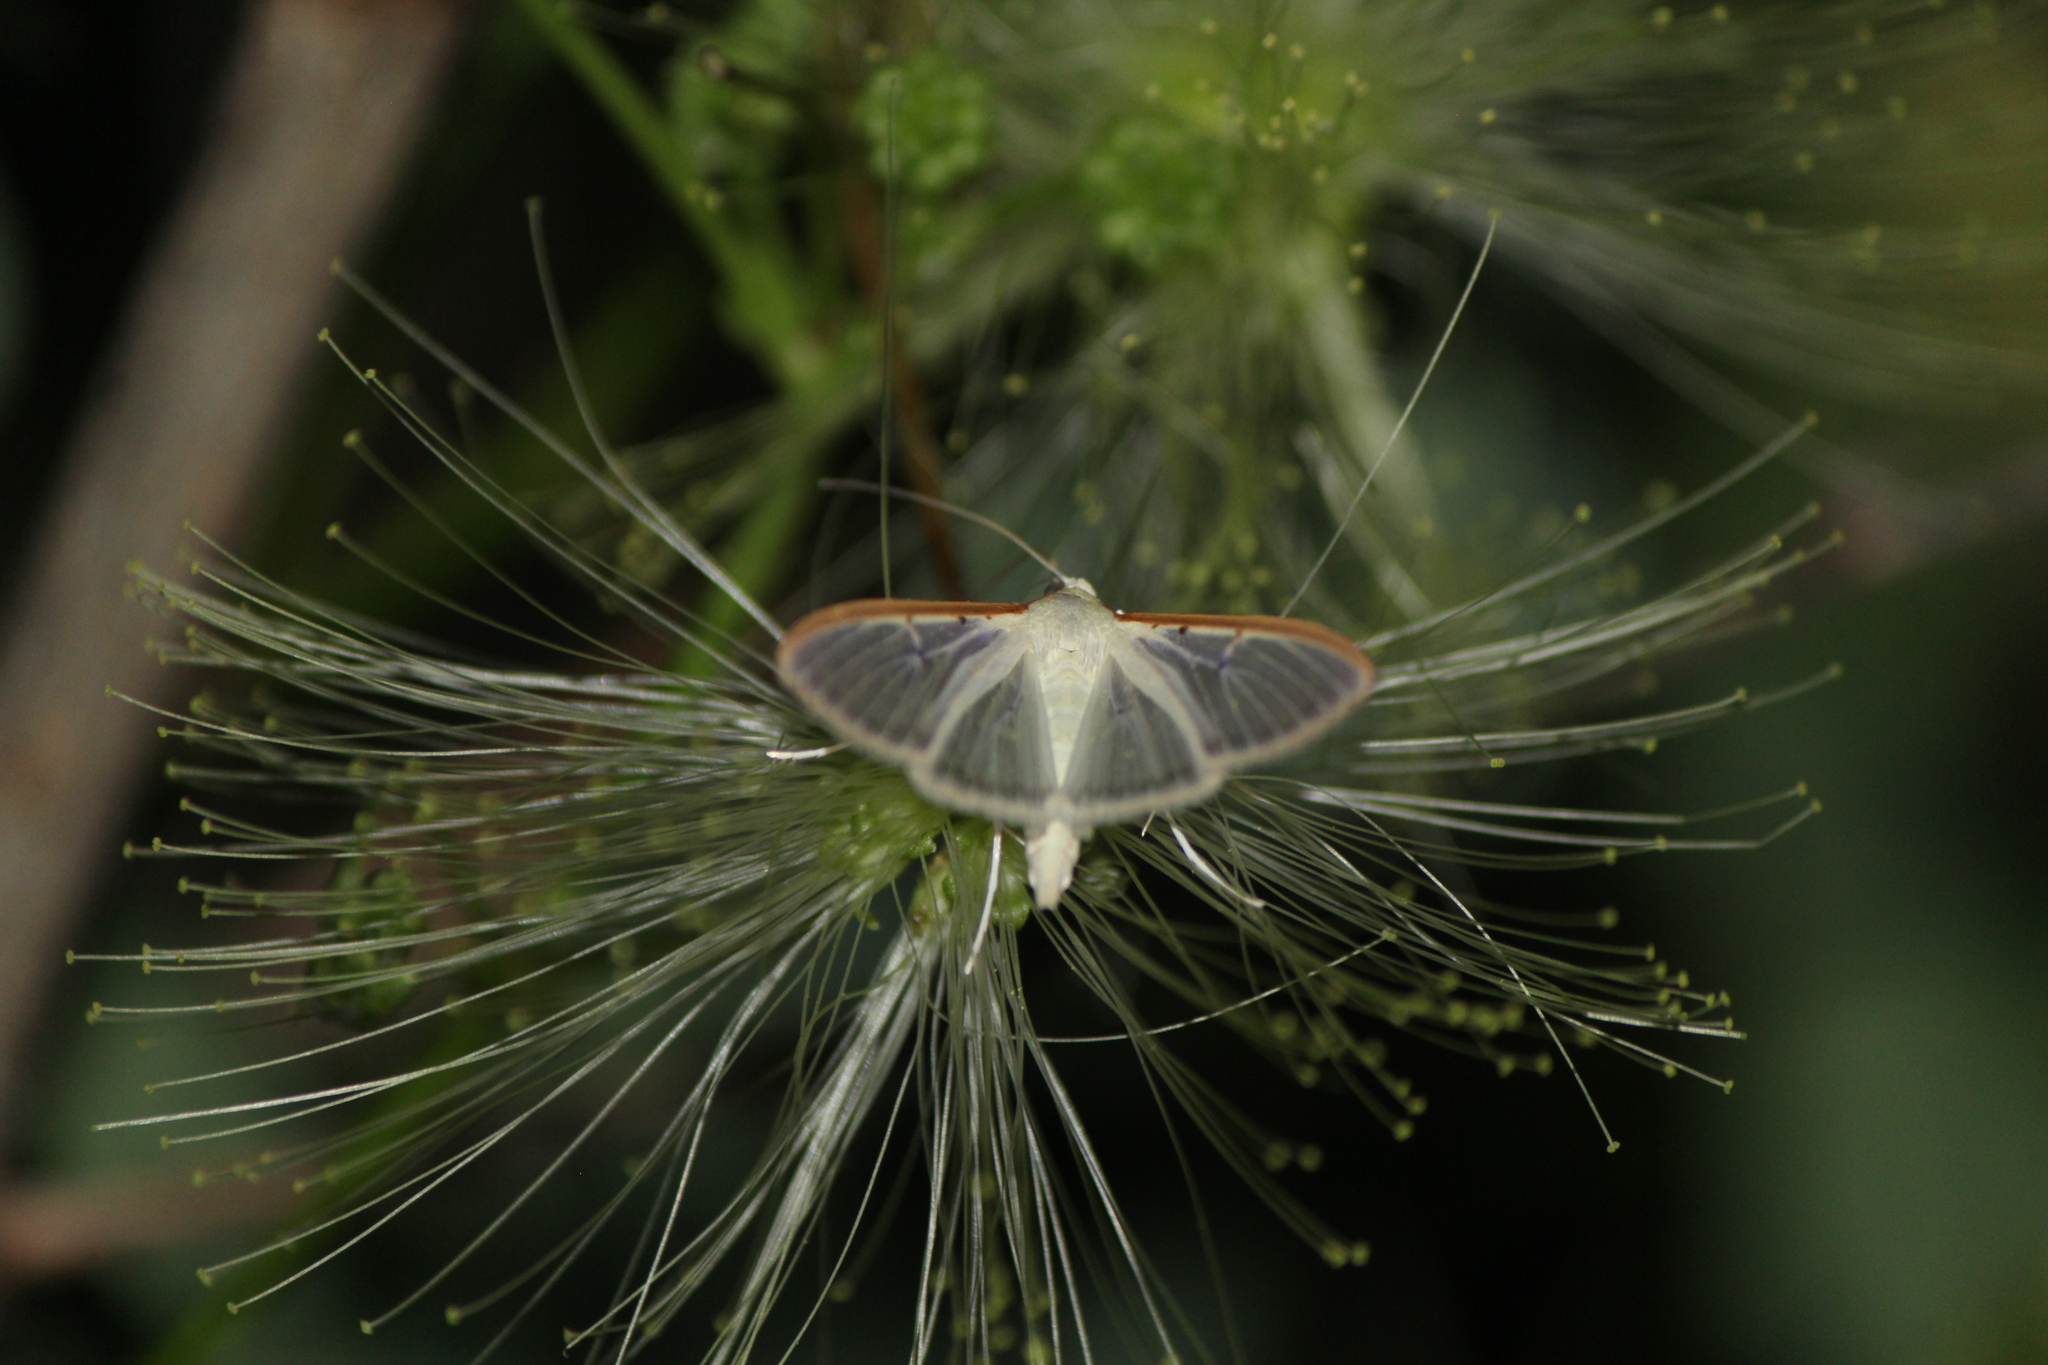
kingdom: Animalia
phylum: Arthropoda
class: Insecta
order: Lepidoptera
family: Crambidae
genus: Palpita
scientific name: Palpita quadristigmalis
